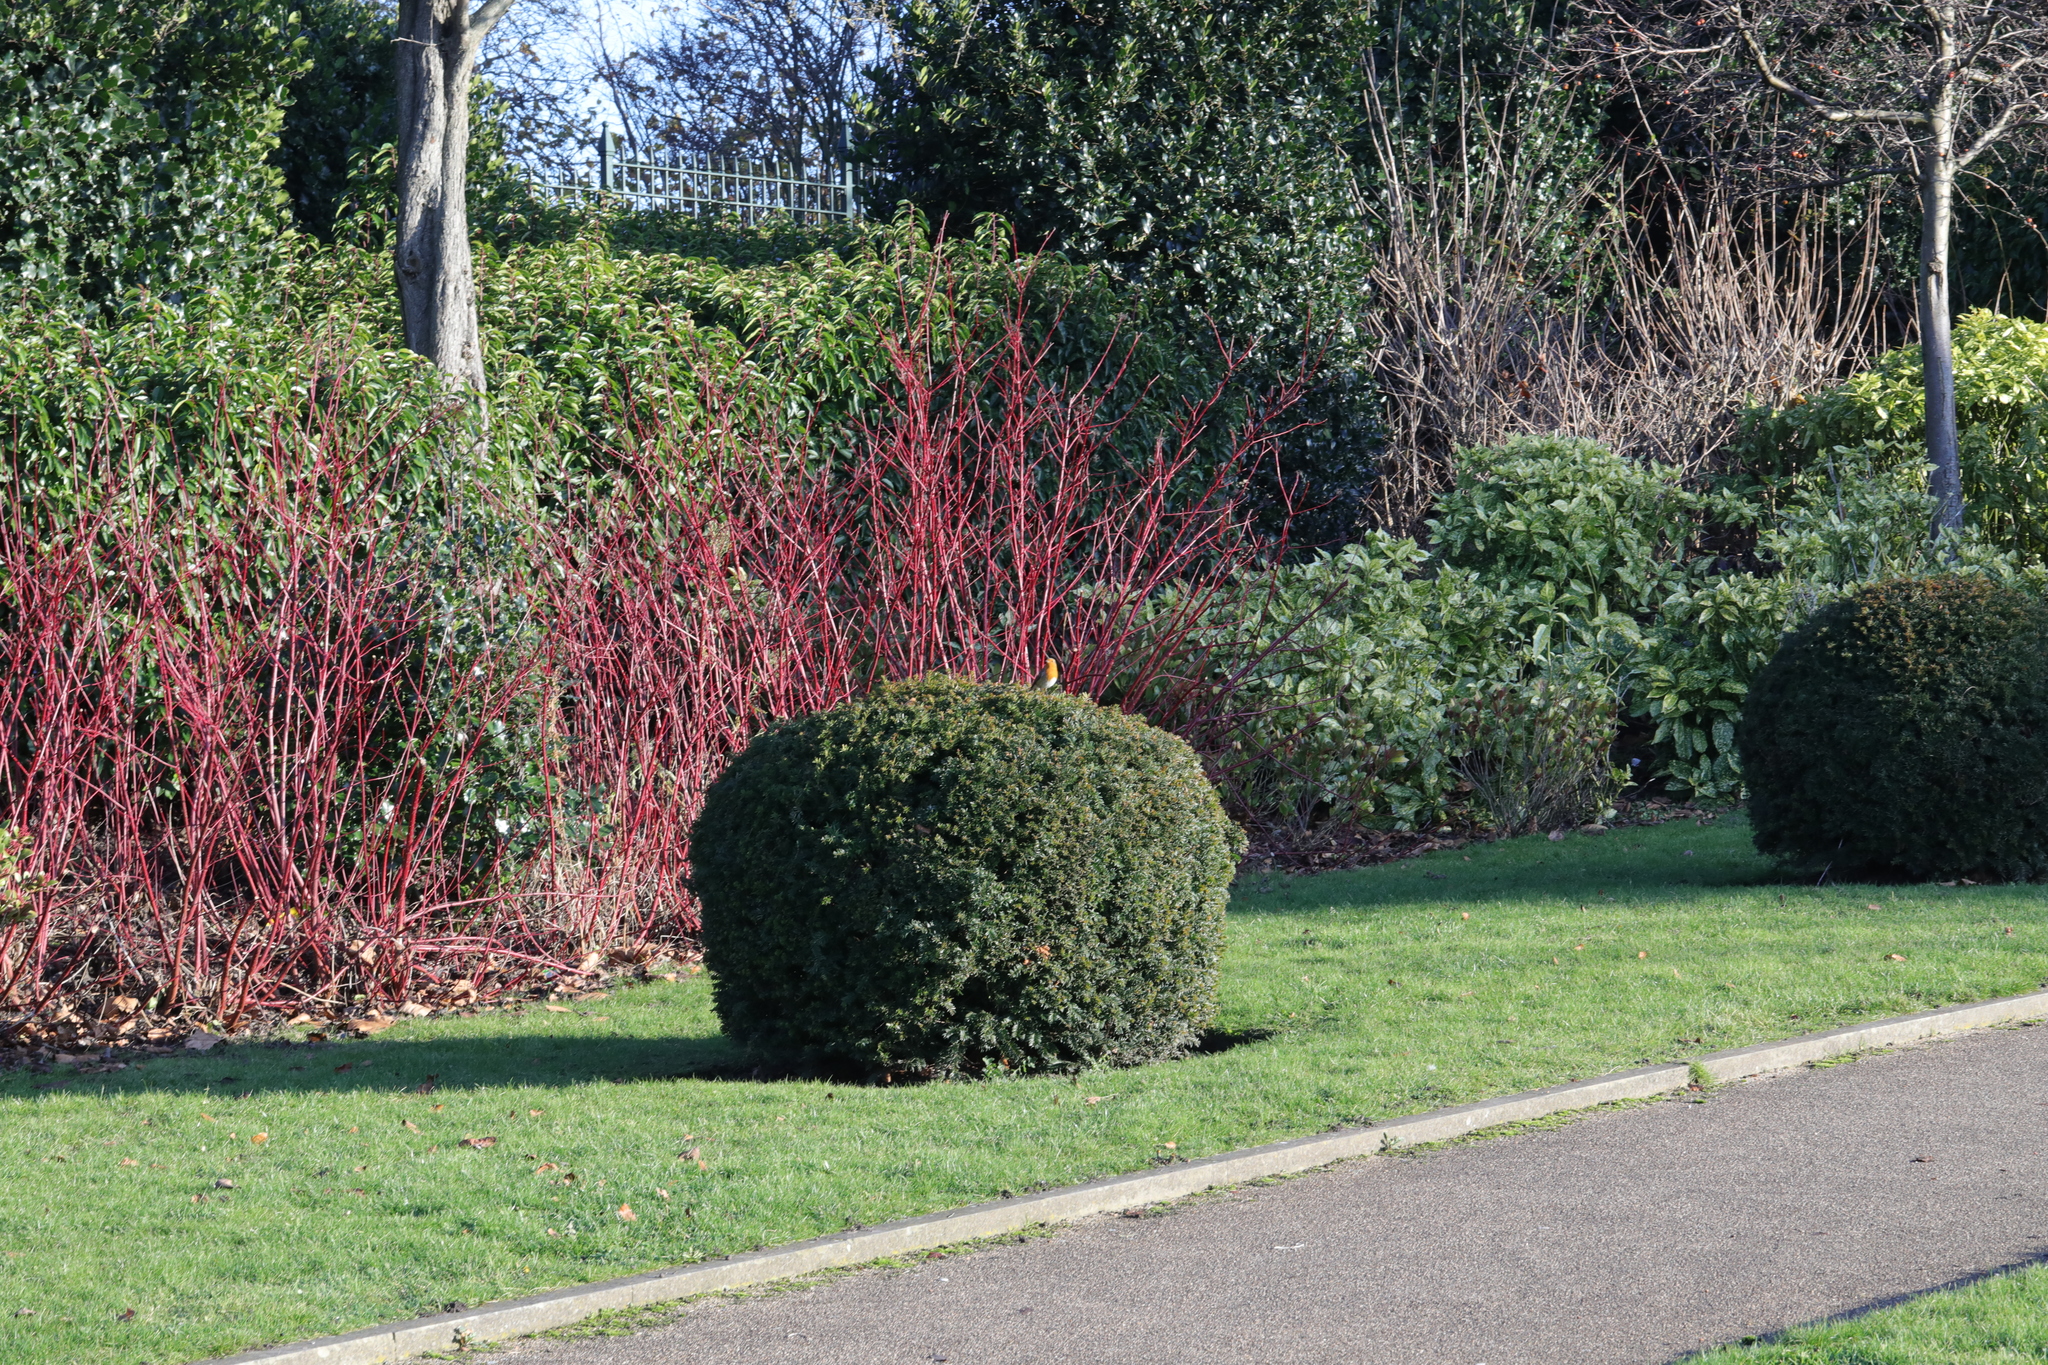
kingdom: Animalia
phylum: Chordata
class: Aves
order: Passeriformes
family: Muscicapidae
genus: Erithacus
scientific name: Erithacus rubecula
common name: European robin
